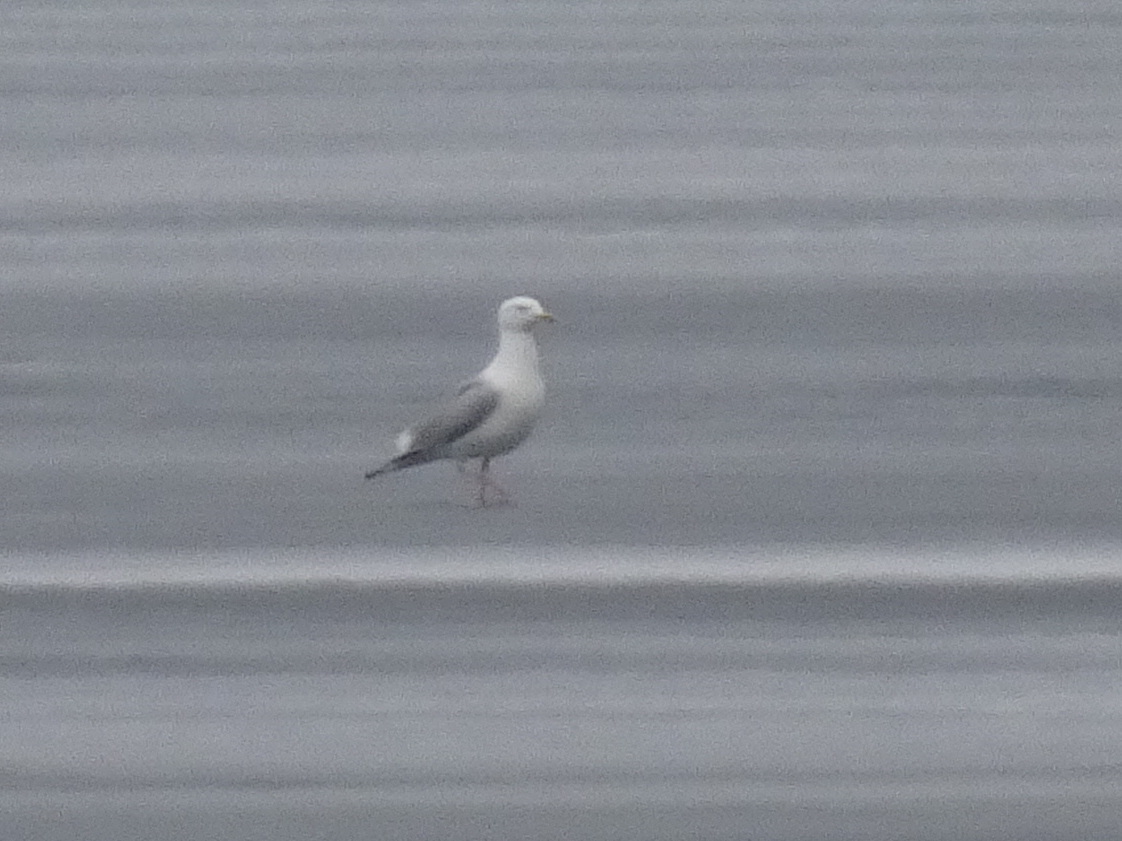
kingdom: Animalia
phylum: Chordata
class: Aves
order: Charadriiformes
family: Laridae
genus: Larus
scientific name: Larus argentatus
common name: Herring gull
